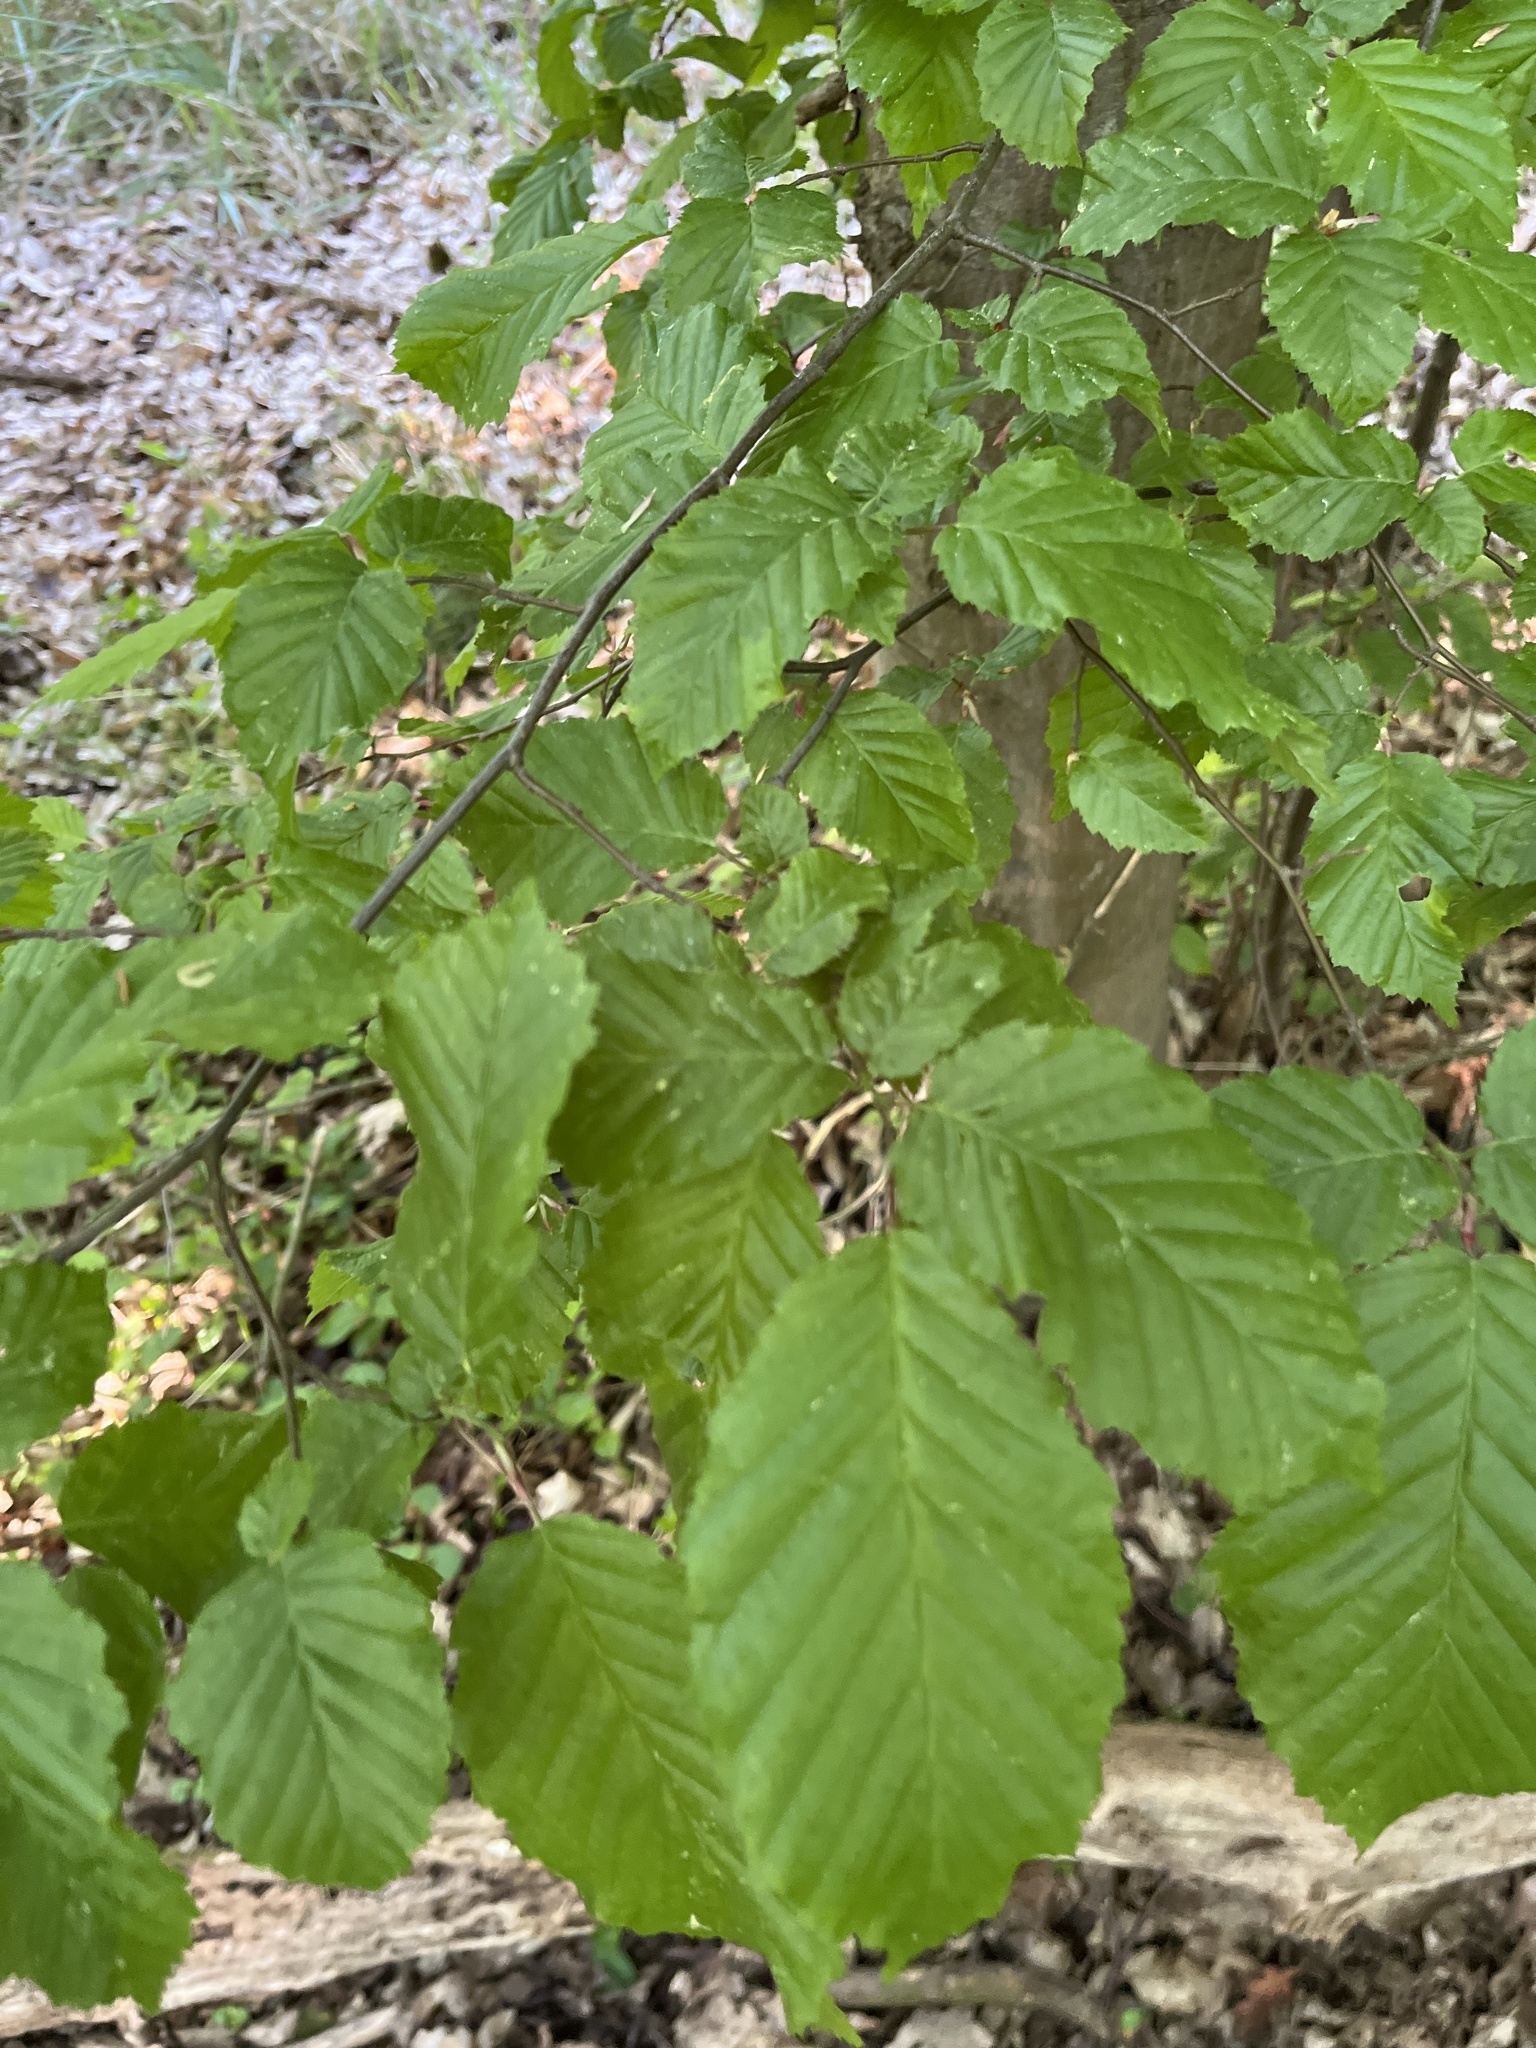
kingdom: Plantae
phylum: Tracheophyta
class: Magnoliopsida
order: Fagales
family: Betulaceae
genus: Carpinus
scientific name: Carpinus betulus
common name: Hornbeam
